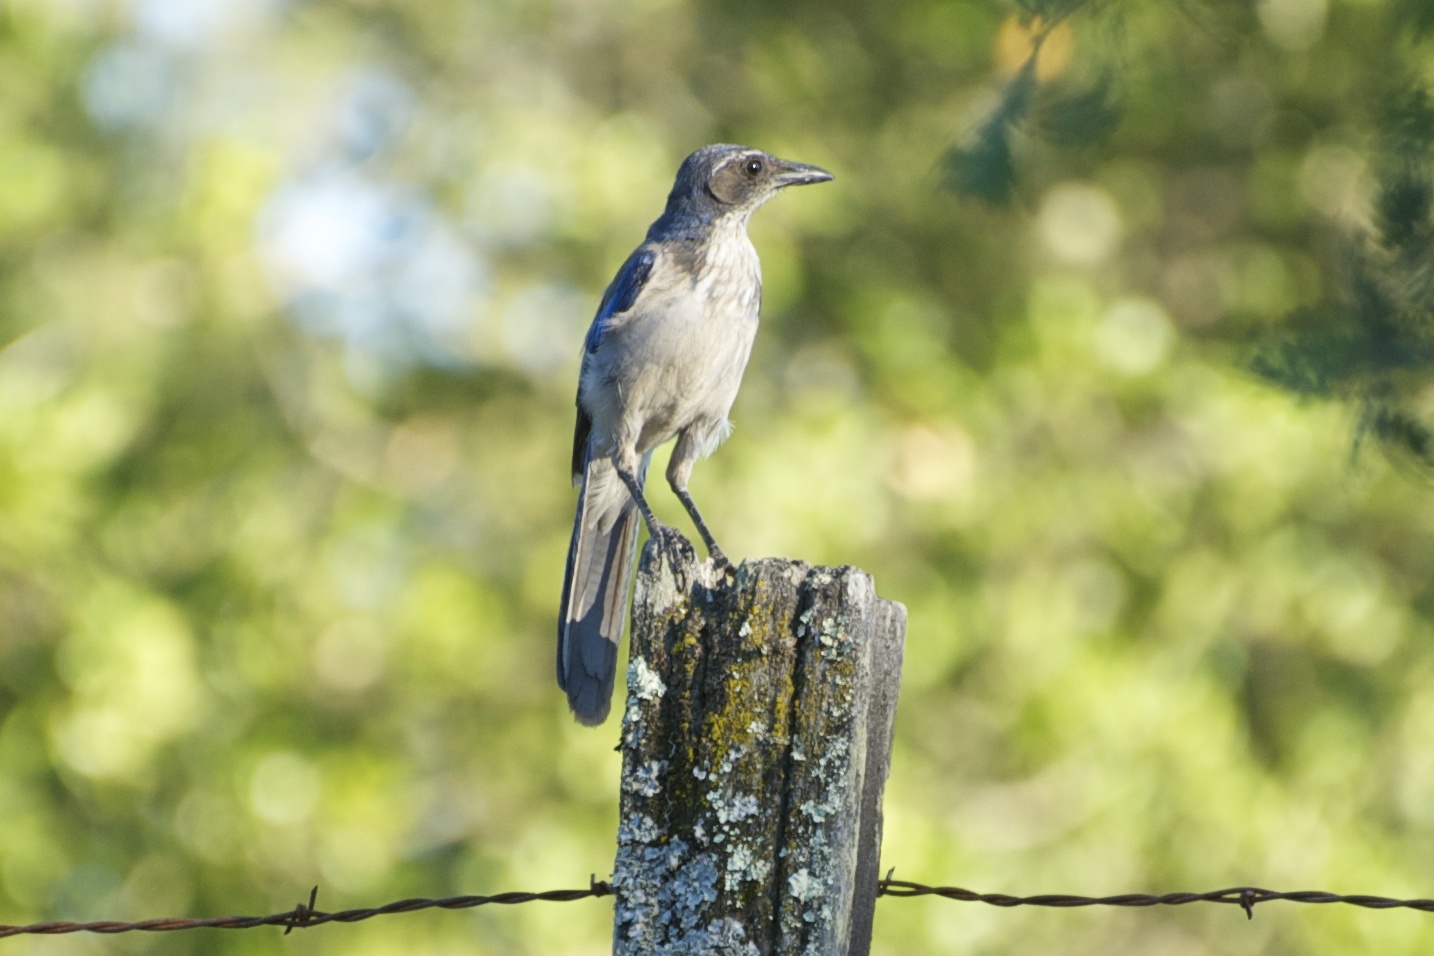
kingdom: Animalia
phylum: Chordata
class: Aves
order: Passeriformes
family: Corvidae
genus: Aphelocoma
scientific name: Aphelocoma californica
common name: California scrub-jay
